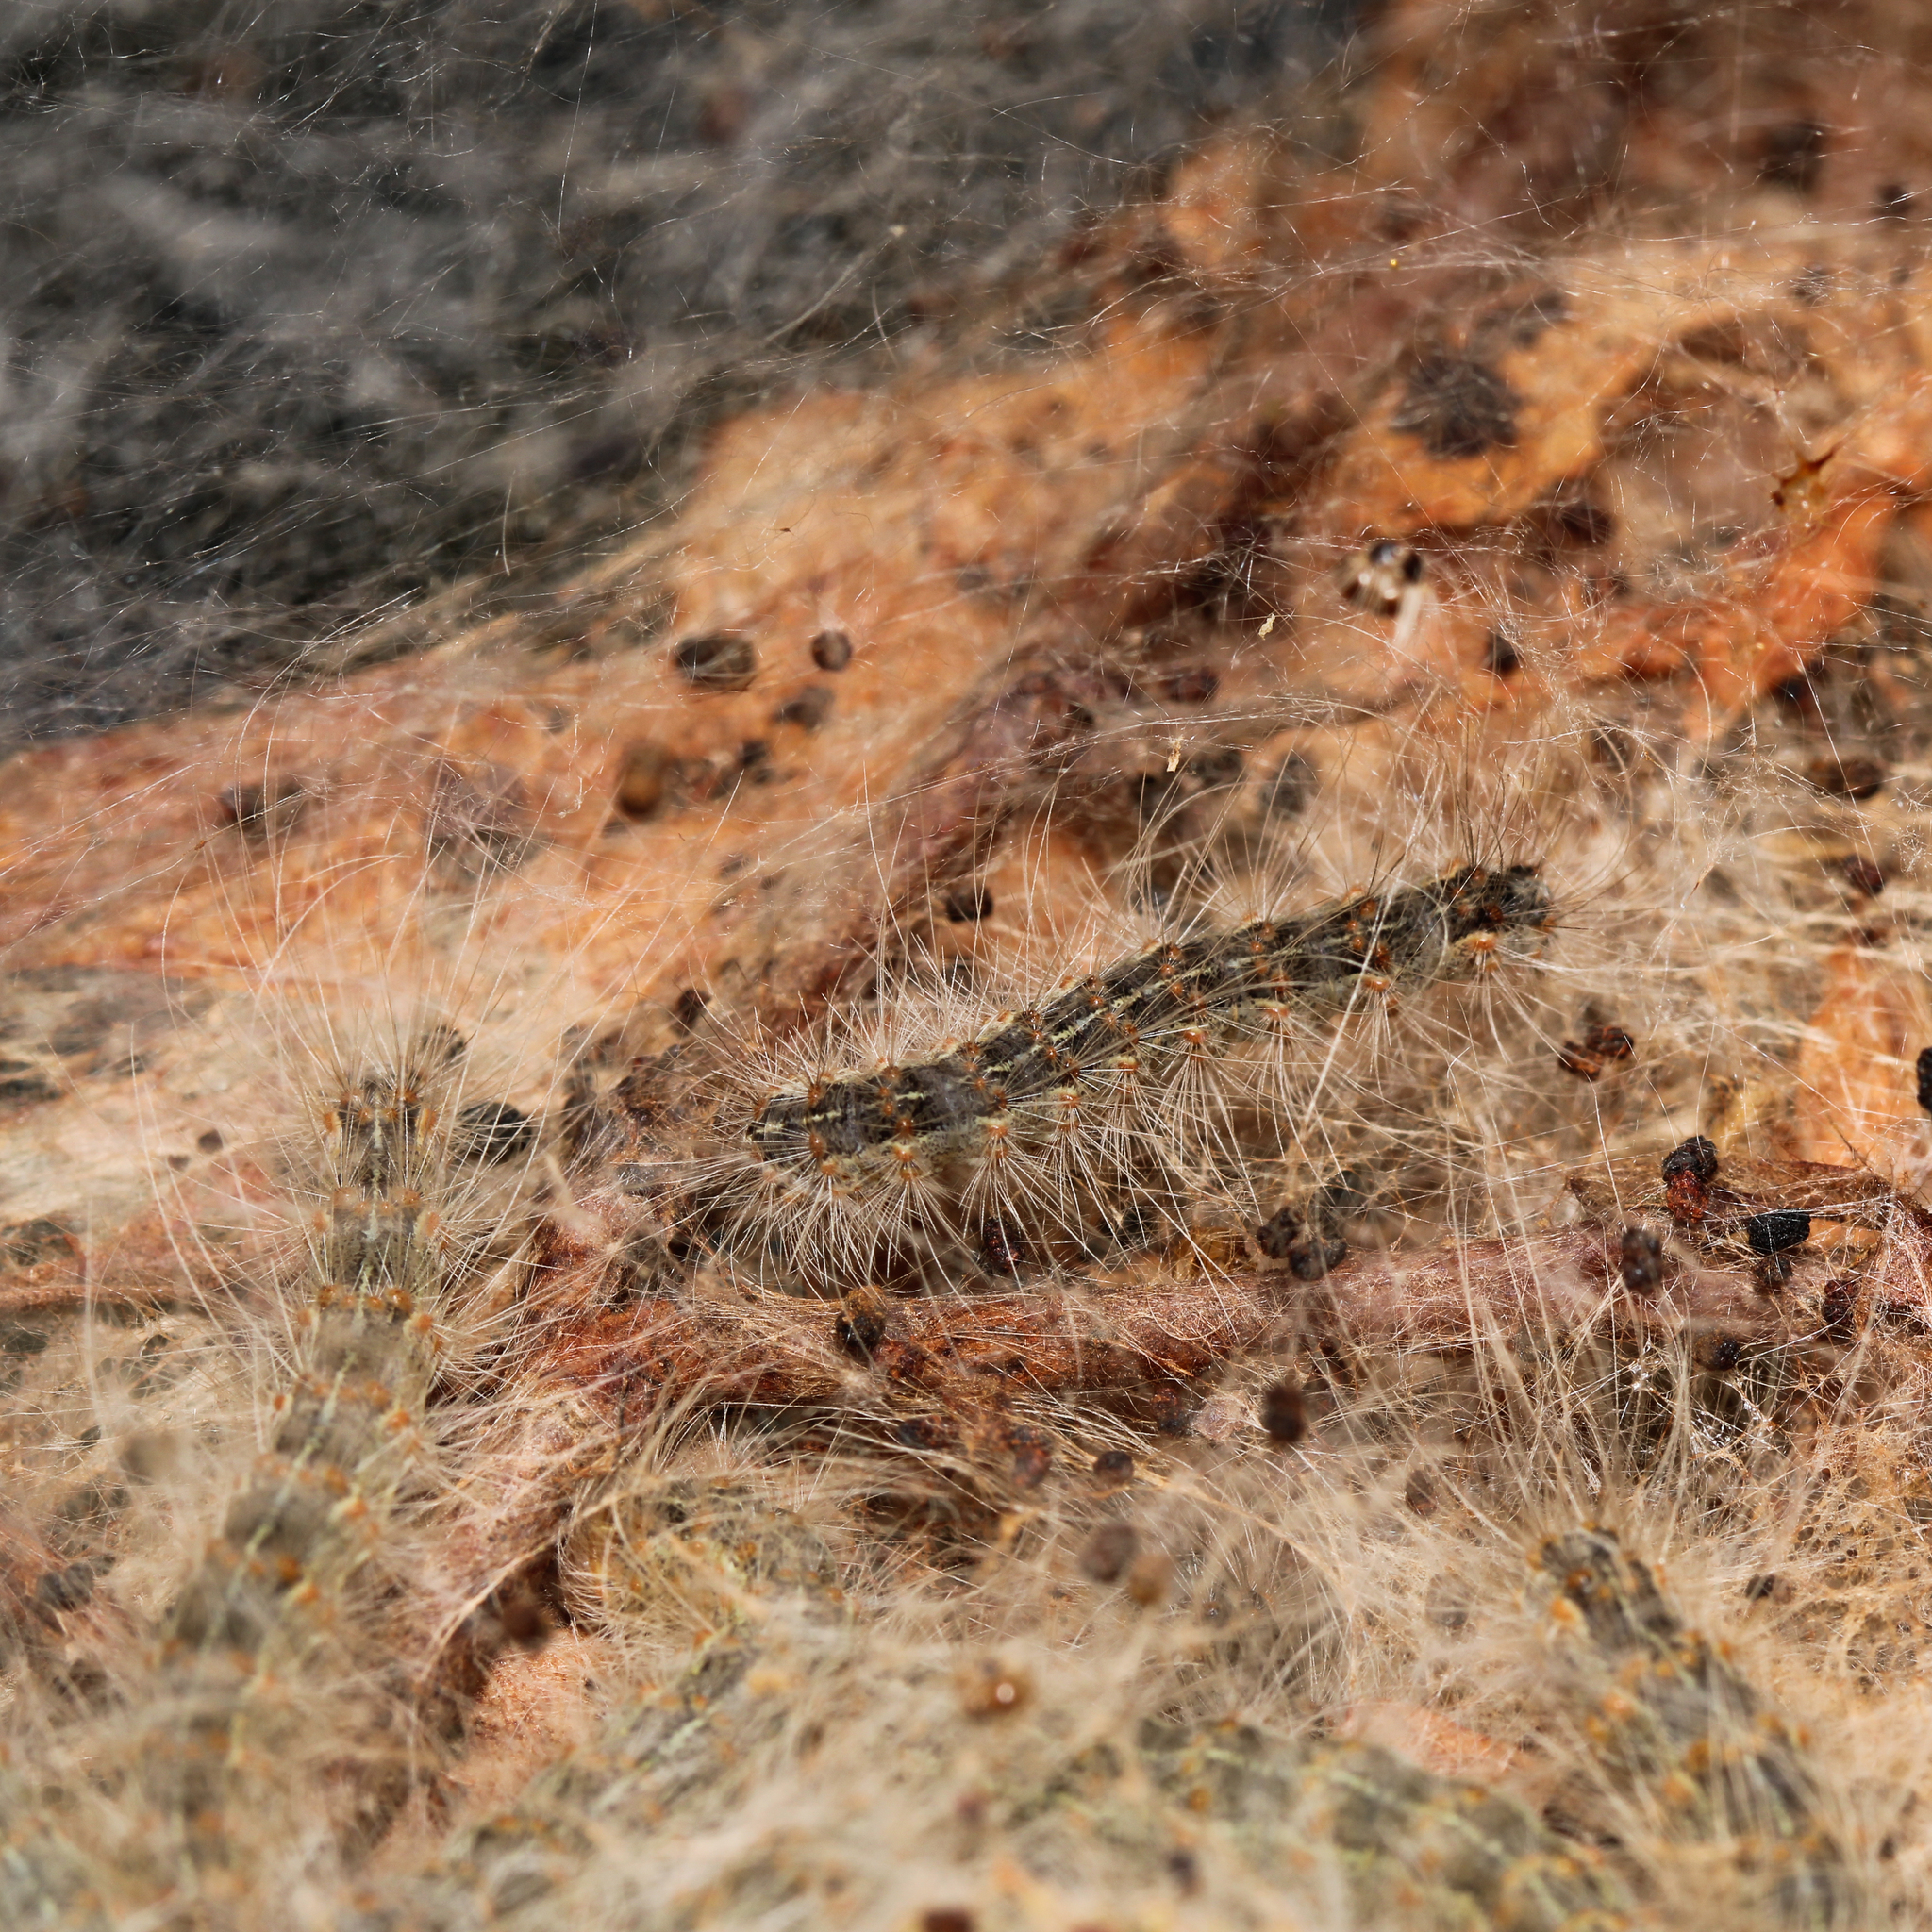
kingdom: Animalia
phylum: Arthropoda
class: Insecta
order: Lepidoptera
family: Erebidae
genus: Hyphantria
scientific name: Hyphantria cunea
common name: American white moth
